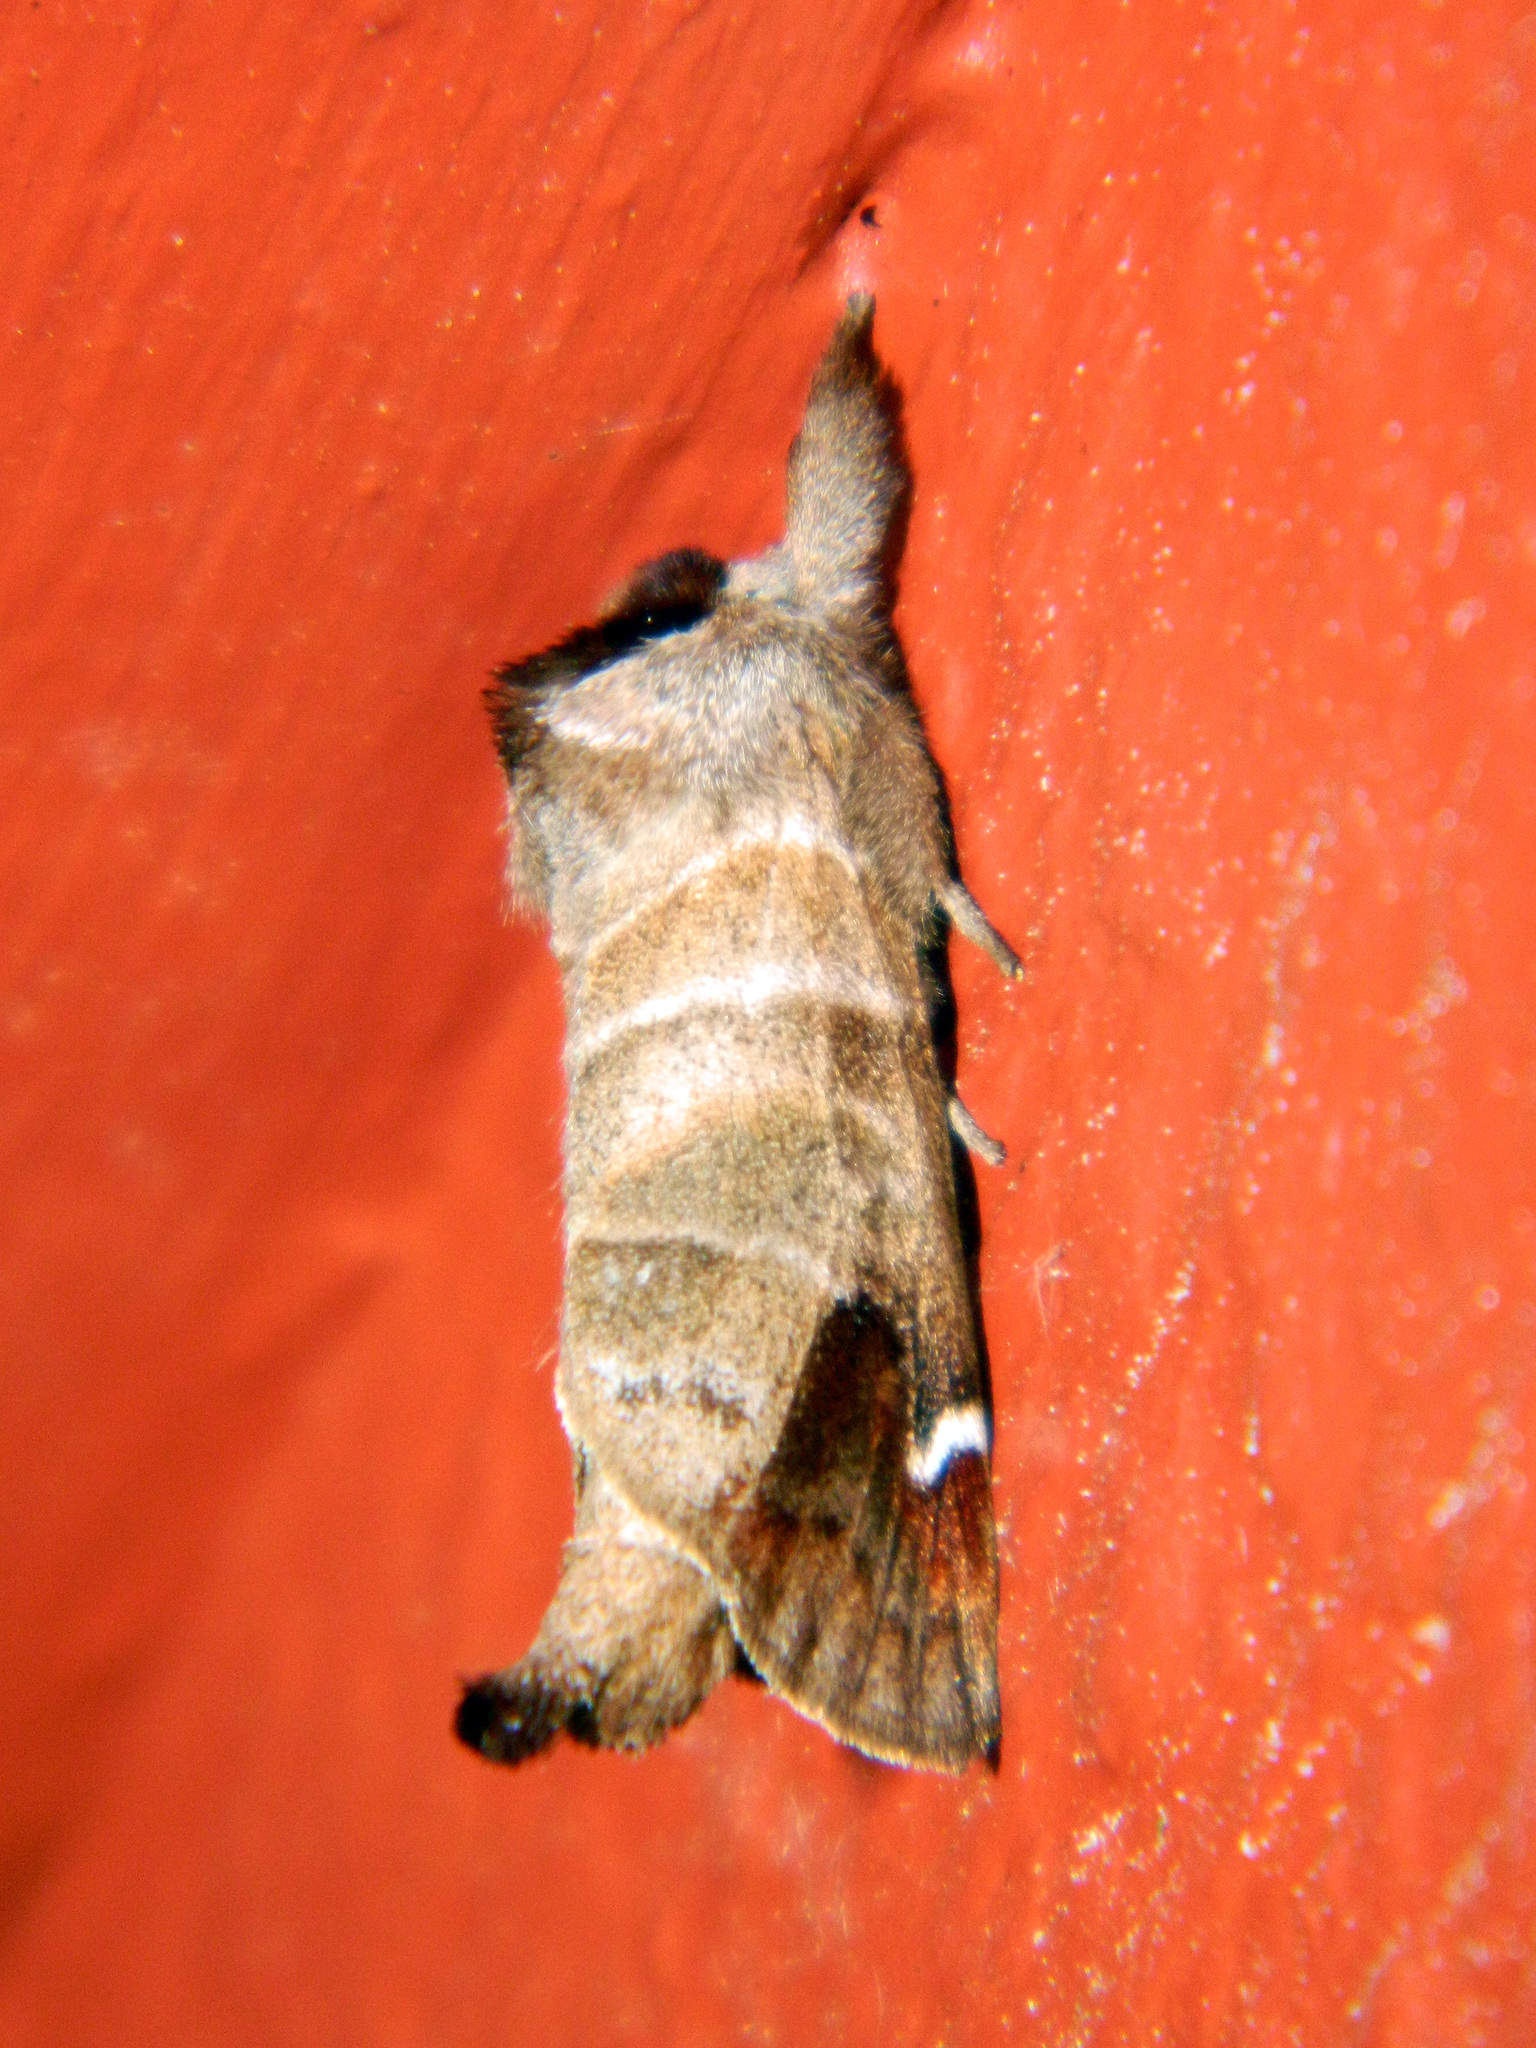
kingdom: Animalia
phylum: Arthropoda
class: Insecta
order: Lepidoptera
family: Notodontidae
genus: Clostera
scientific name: Clostera albosigma
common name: Sigmoid prominent
